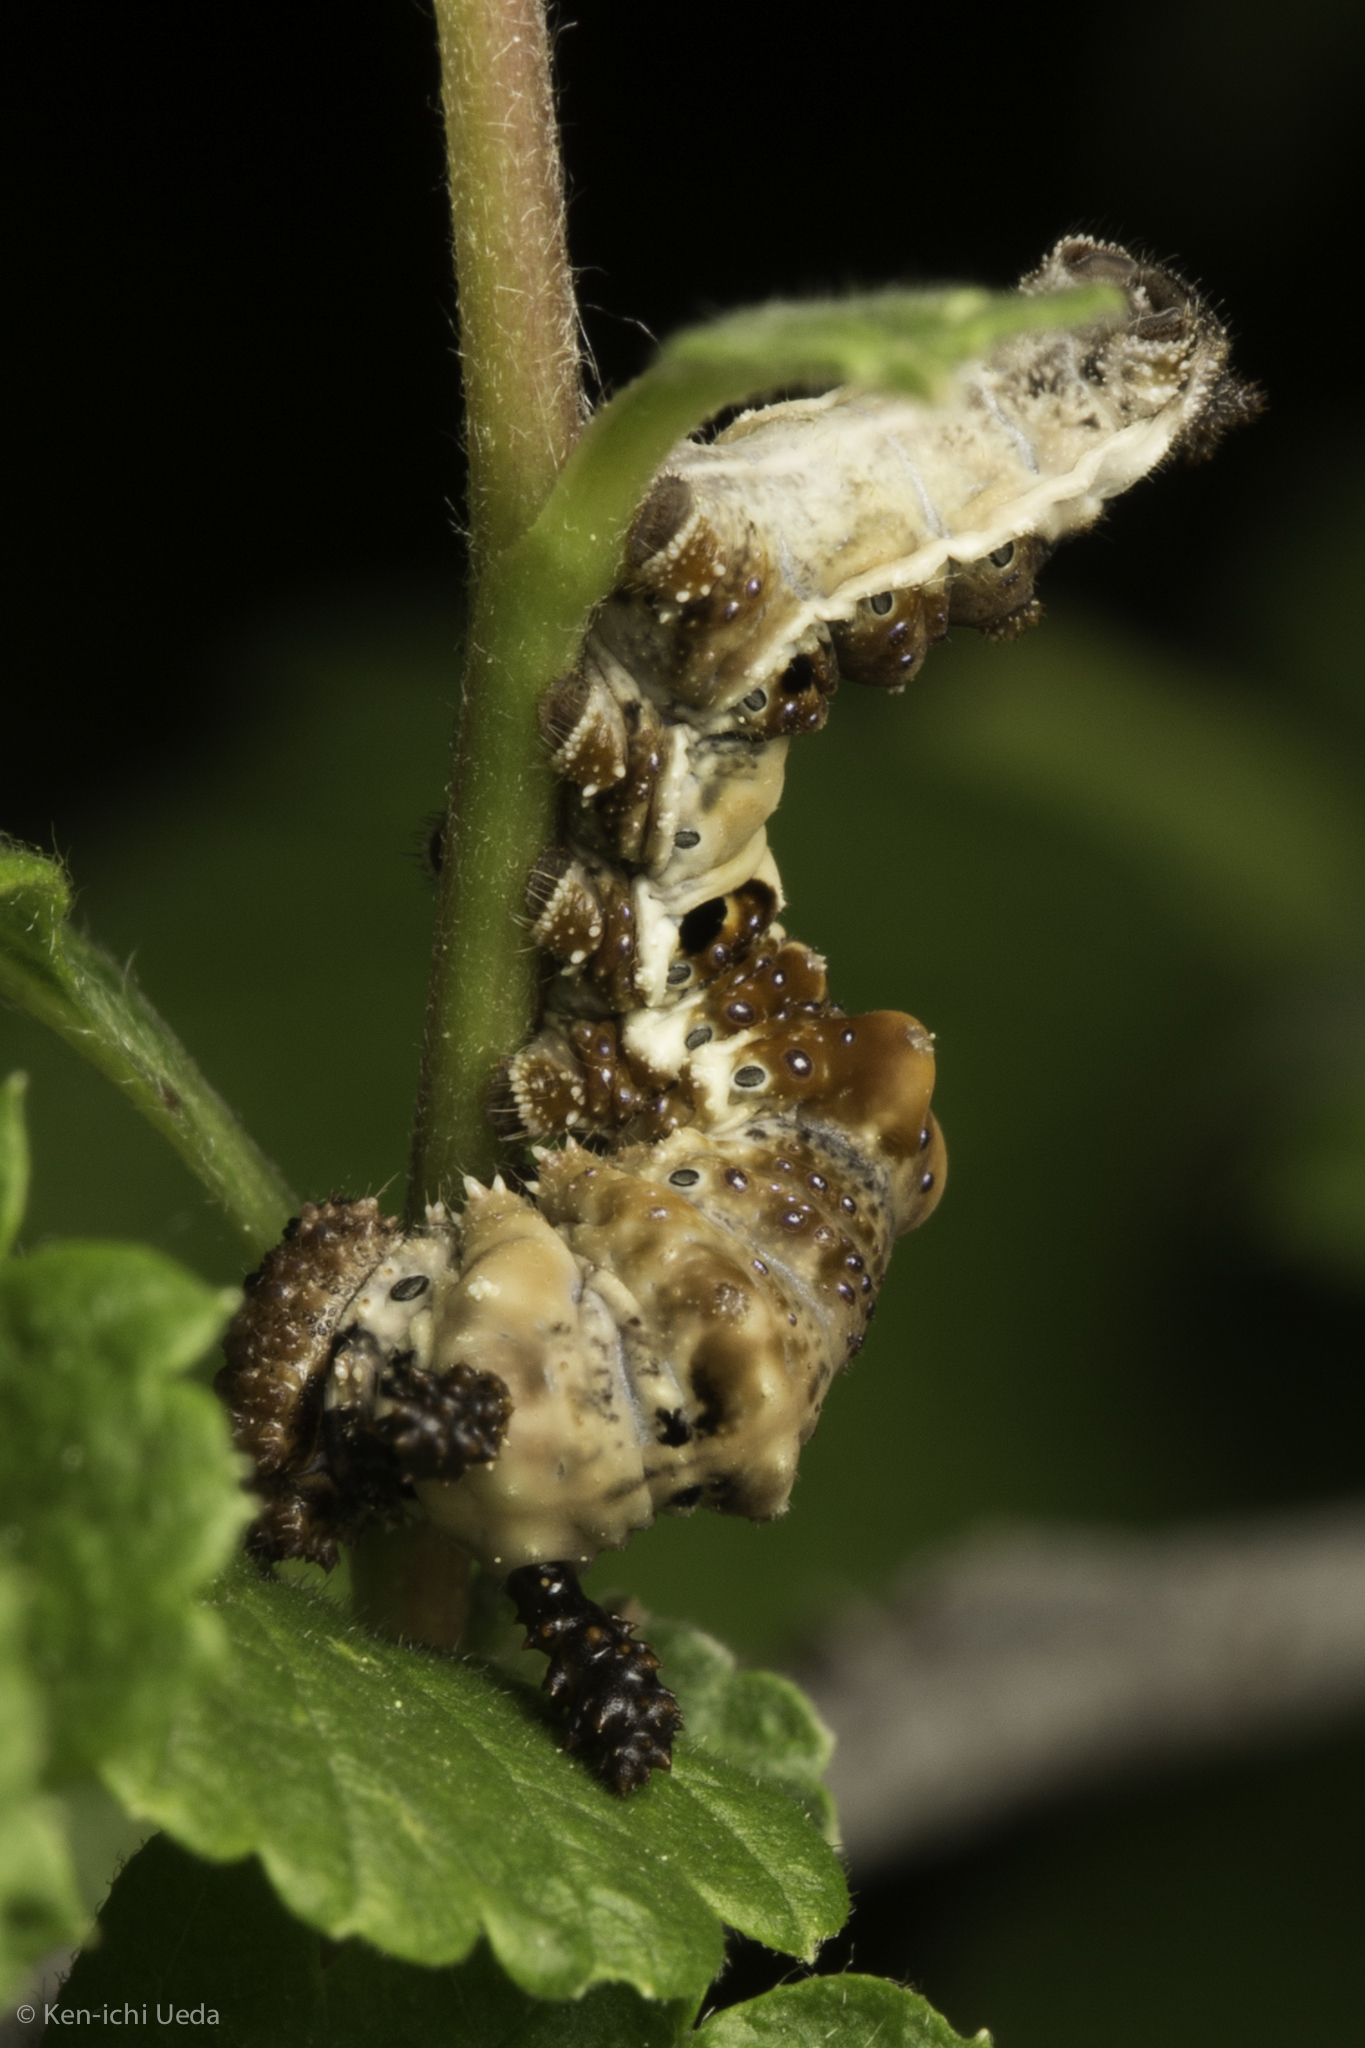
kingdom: Animalia
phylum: Arthropoda
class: Insecta
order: Lepidoptera
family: Nymphalidae
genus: Limenitis
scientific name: Limenitis lorquini
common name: Lorquin's admiral
